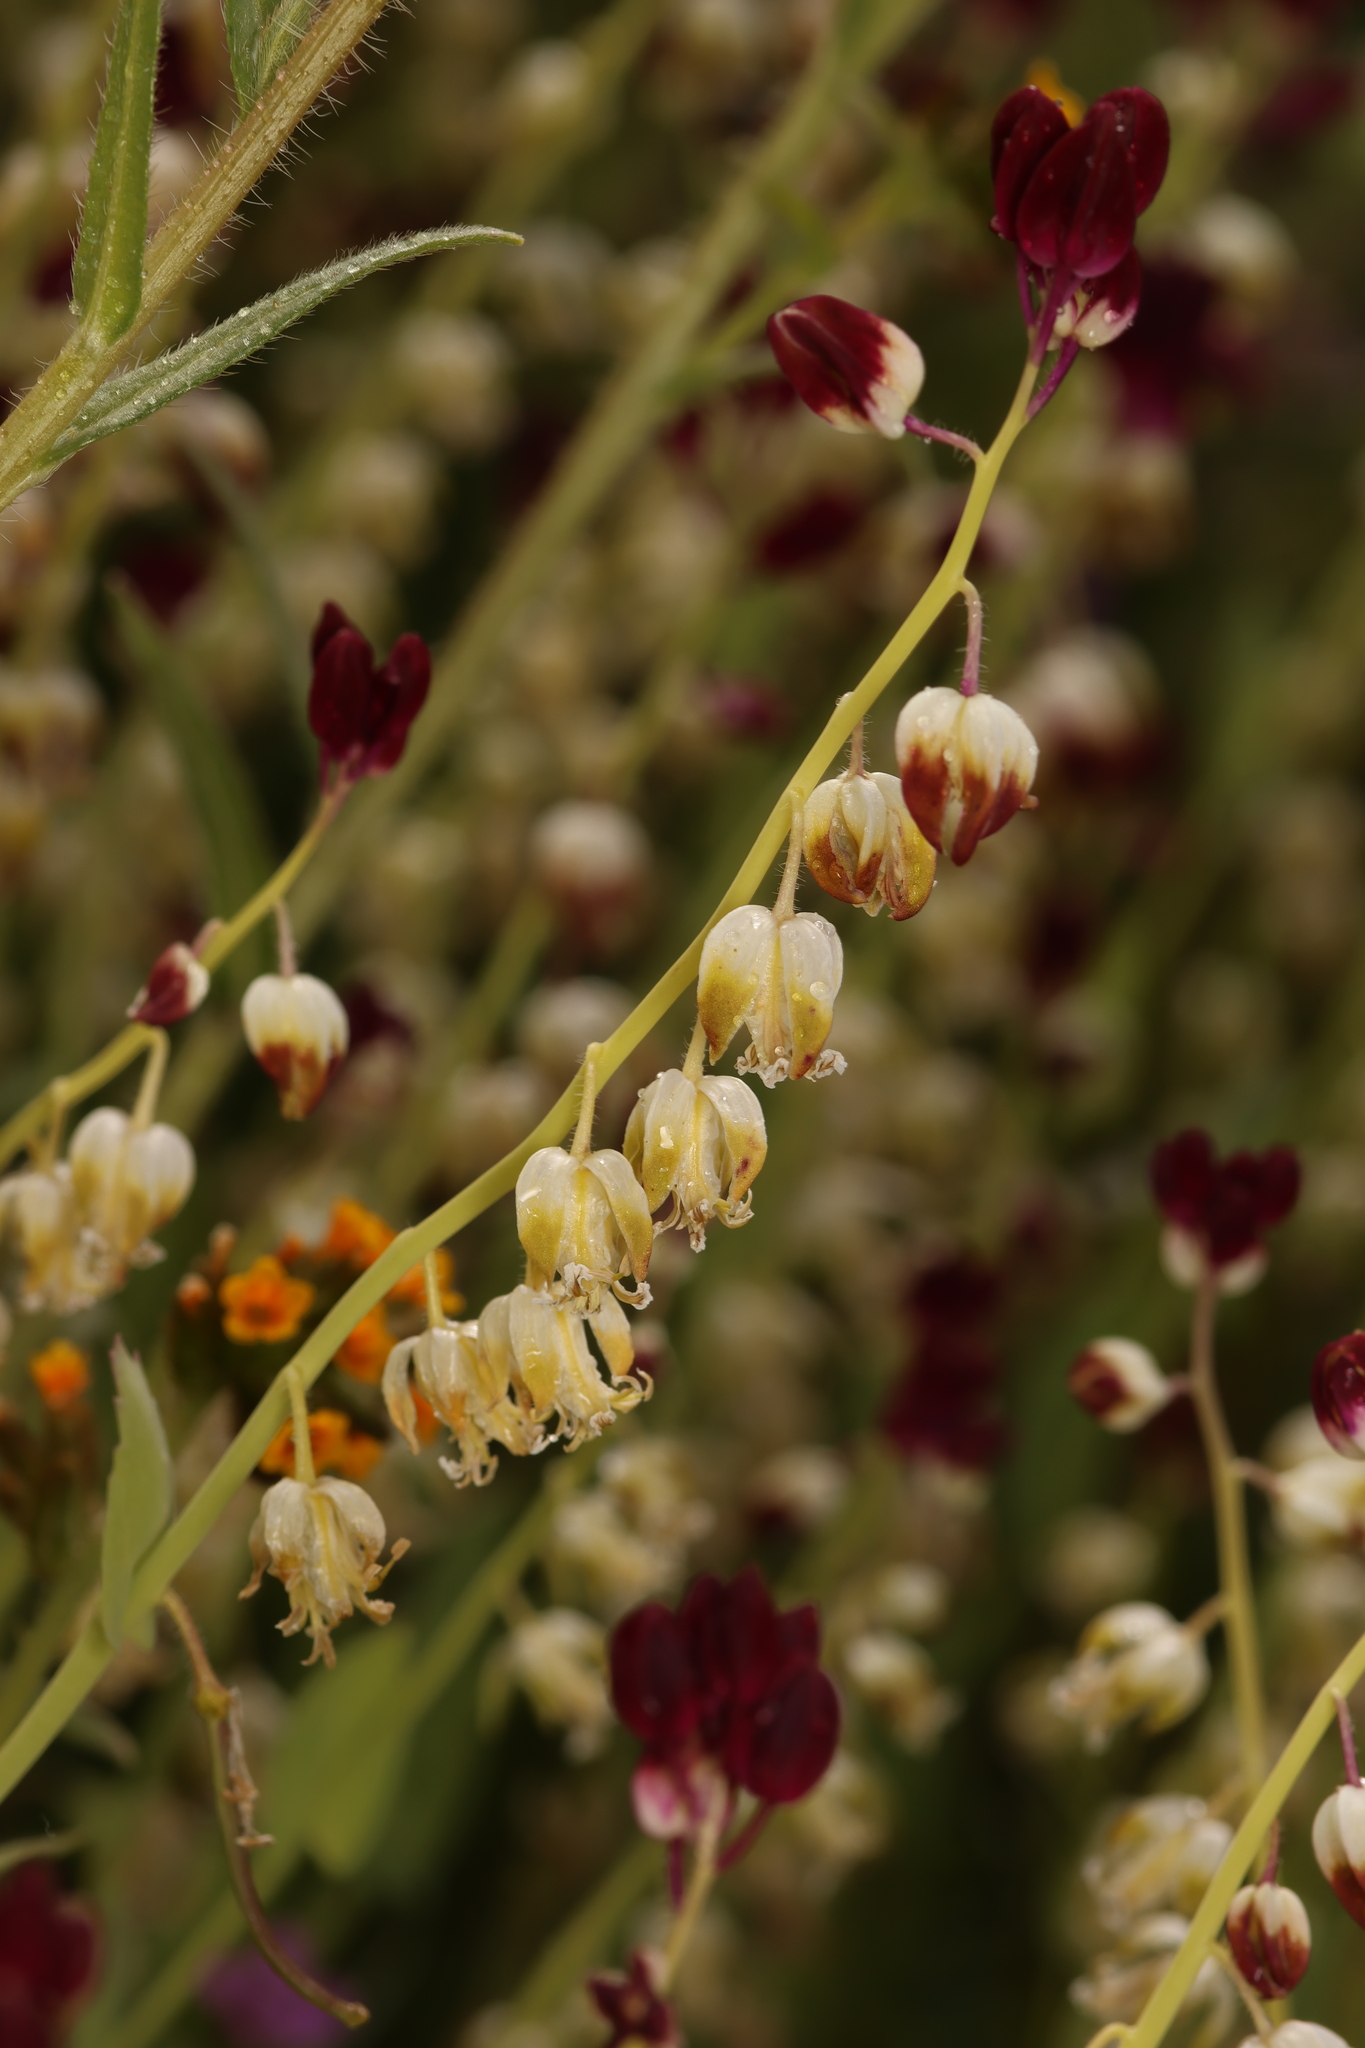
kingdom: Plantae
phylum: Tracheophyta
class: Magnoliopsida
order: Brassicales
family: Brassicaceae
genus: Streptanthus
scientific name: Streptanthus californicus
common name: California-jewel-flower
